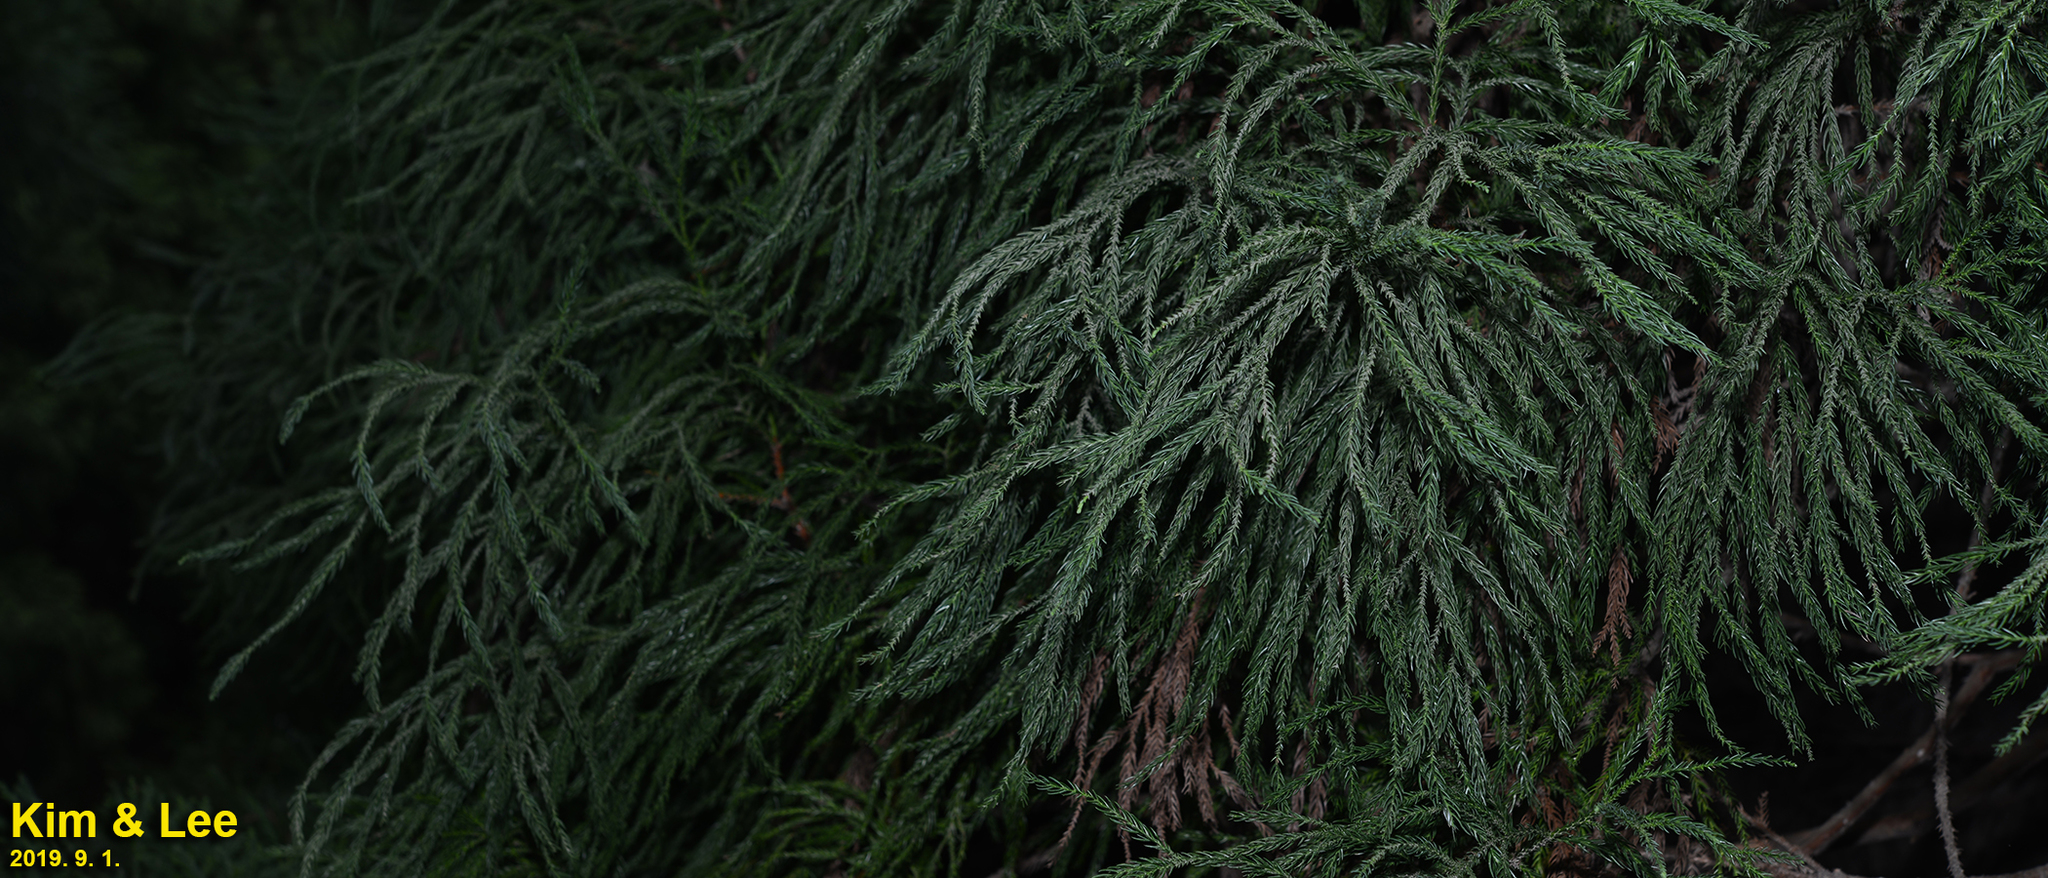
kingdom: Plantae
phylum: Tracheophyta
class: Pinopsida
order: Pinales
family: Cupressaceae
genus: Cryptomeria
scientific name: Cryptomeria japonica
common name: Japanese cedar
